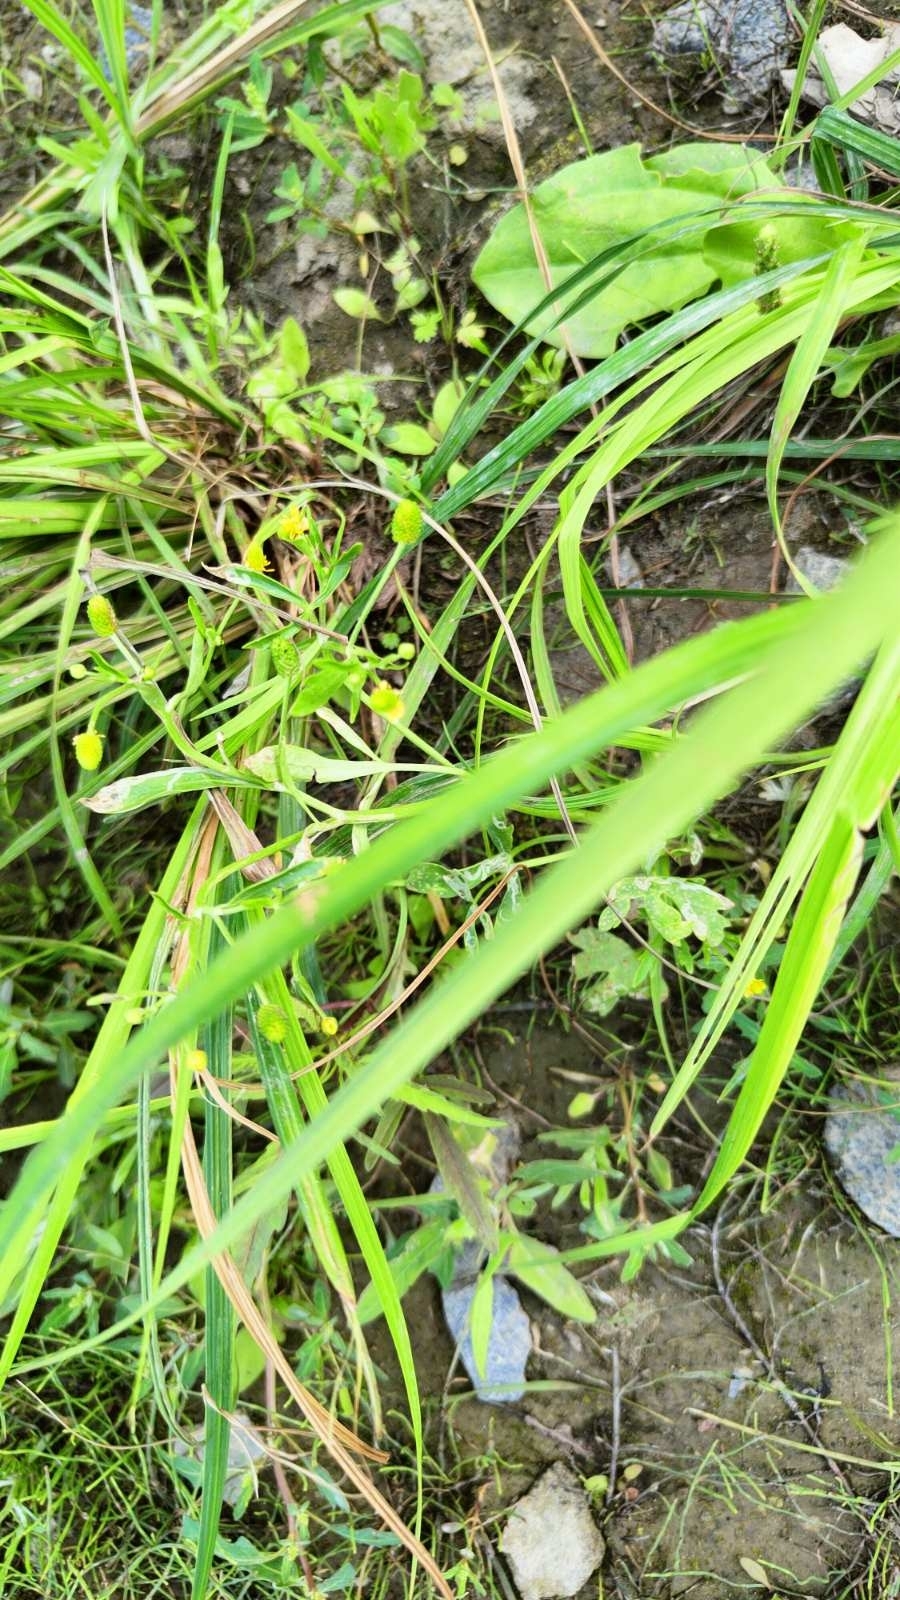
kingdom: Plantae
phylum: Tracheophyta
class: Magnoliopsida
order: Ranunculales
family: Ranunculaceae
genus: Ranunculus
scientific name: Ranunculus sceleratus
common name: Celery-leaved buttercup
